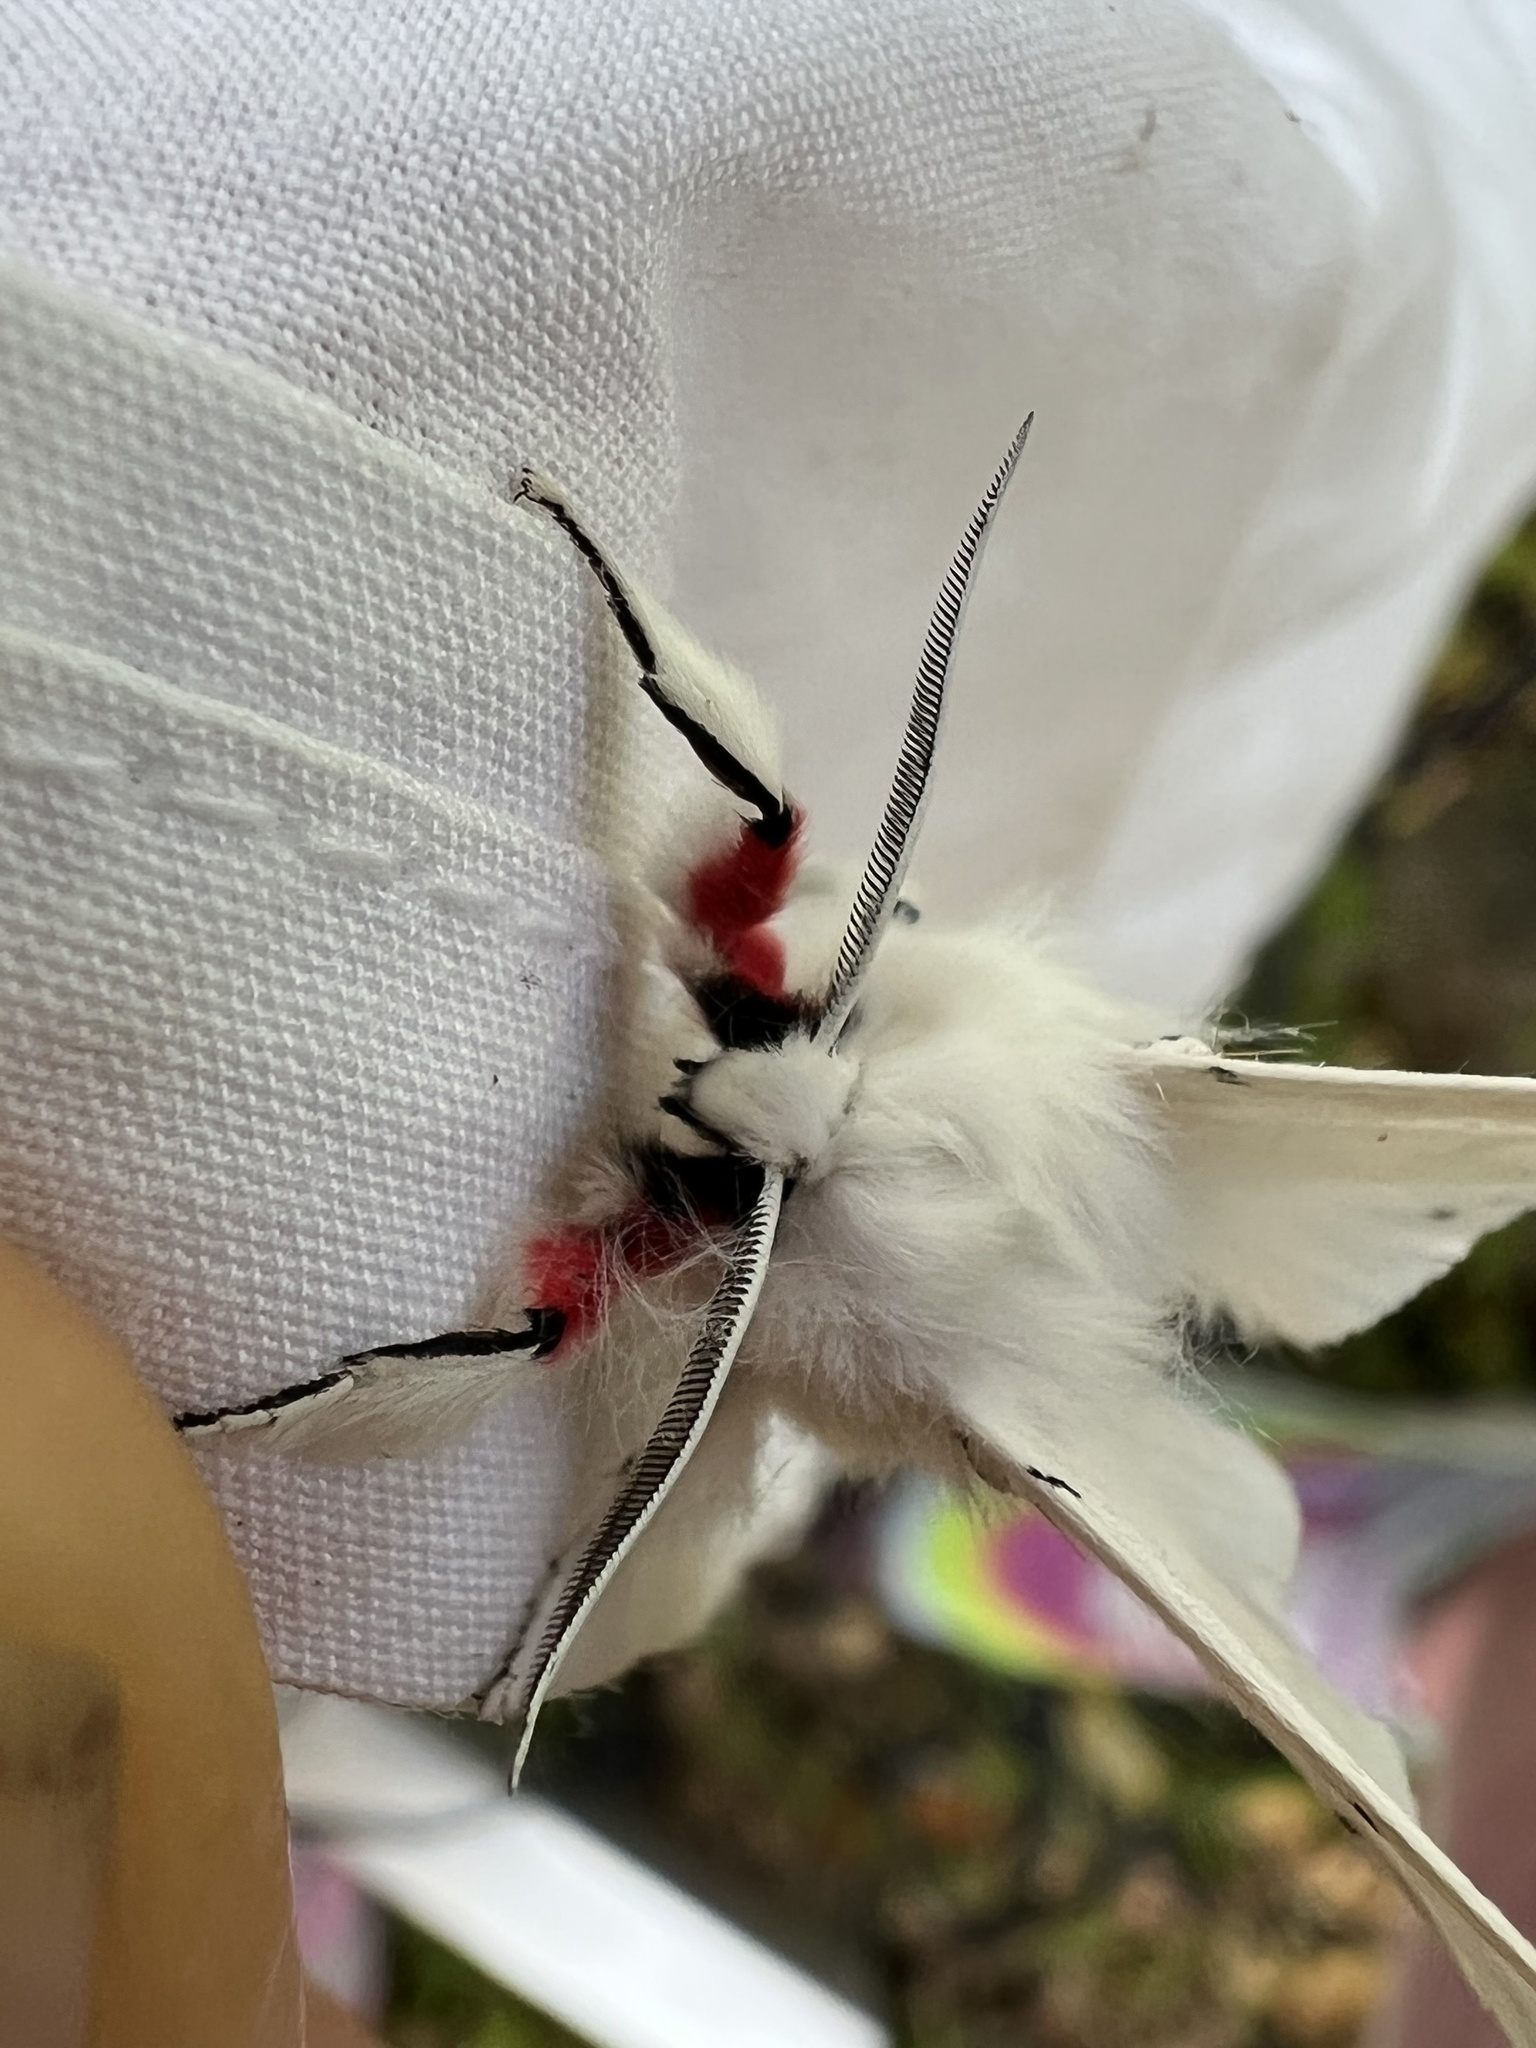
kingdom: Animalia
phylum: Arthropoda
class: Insecta
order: Lepidoptera
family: Erebidae
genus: Spilosoma
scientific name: Spilosoma vestalis
